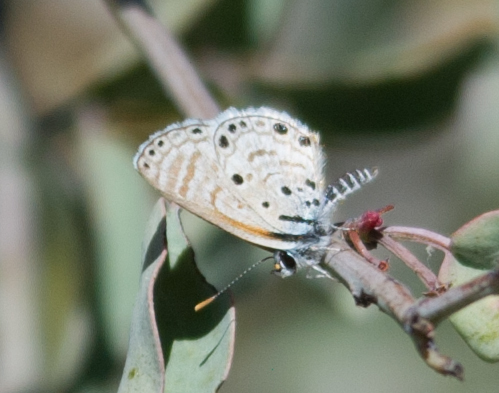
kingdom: Animalia
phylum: Arthropoda
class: Insecta
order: Lepidoptera
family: Lycaenidae
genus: Azanus
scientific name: Azanus jesous
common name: African babul blue
